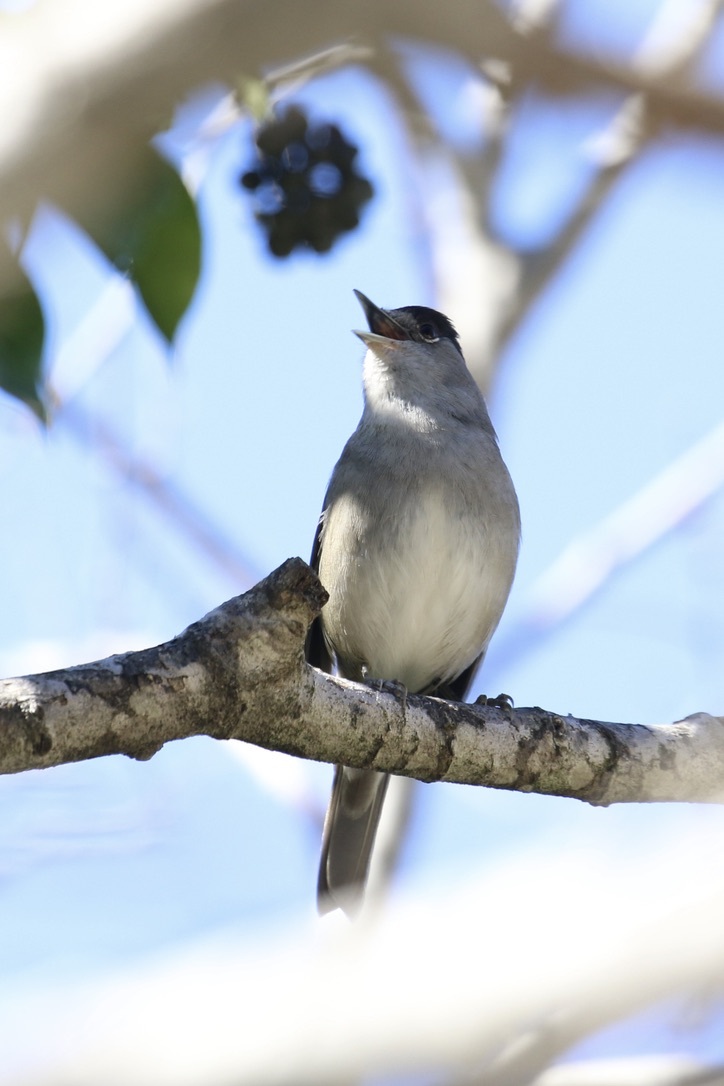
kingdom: Animalia
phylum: Chordata
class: Aves
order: Passeriformes
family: Sylviidae
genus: Sylvia
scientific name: Sylvia atricapilla
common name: Eurasian blackcap
